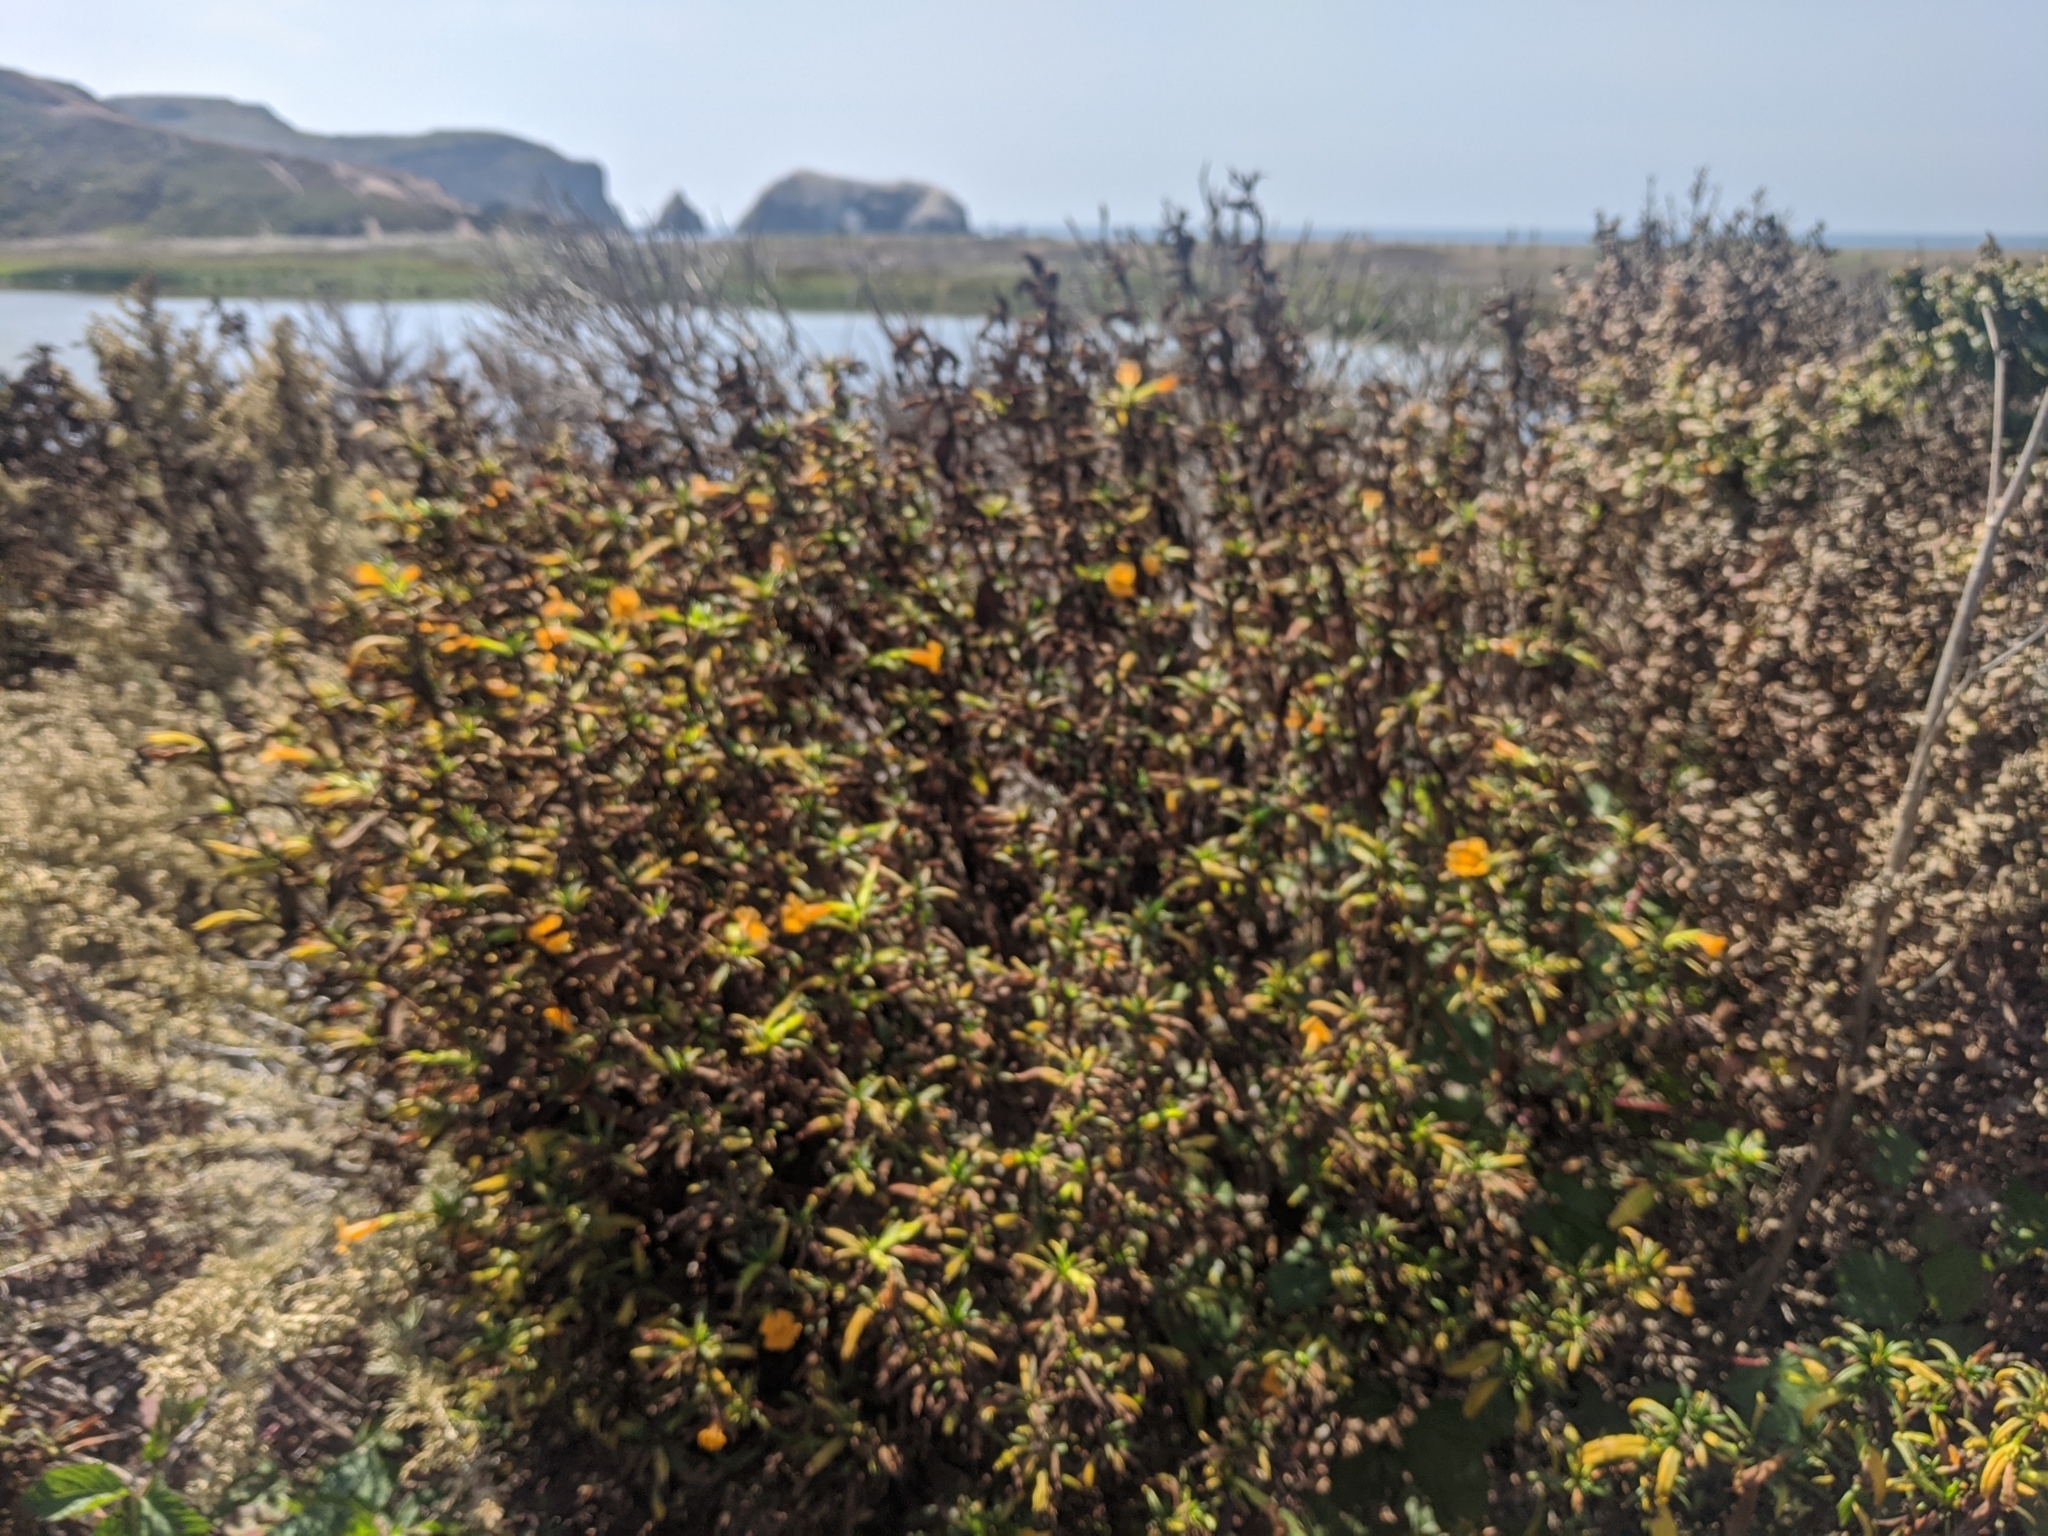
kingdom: Plantae
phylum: Tracheophyta
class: Magnoliopsida
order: Lamiales
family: Phrymaceae
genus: Diplacus
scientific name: Diplacus aurantiacus
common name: Bush monkey-flower
